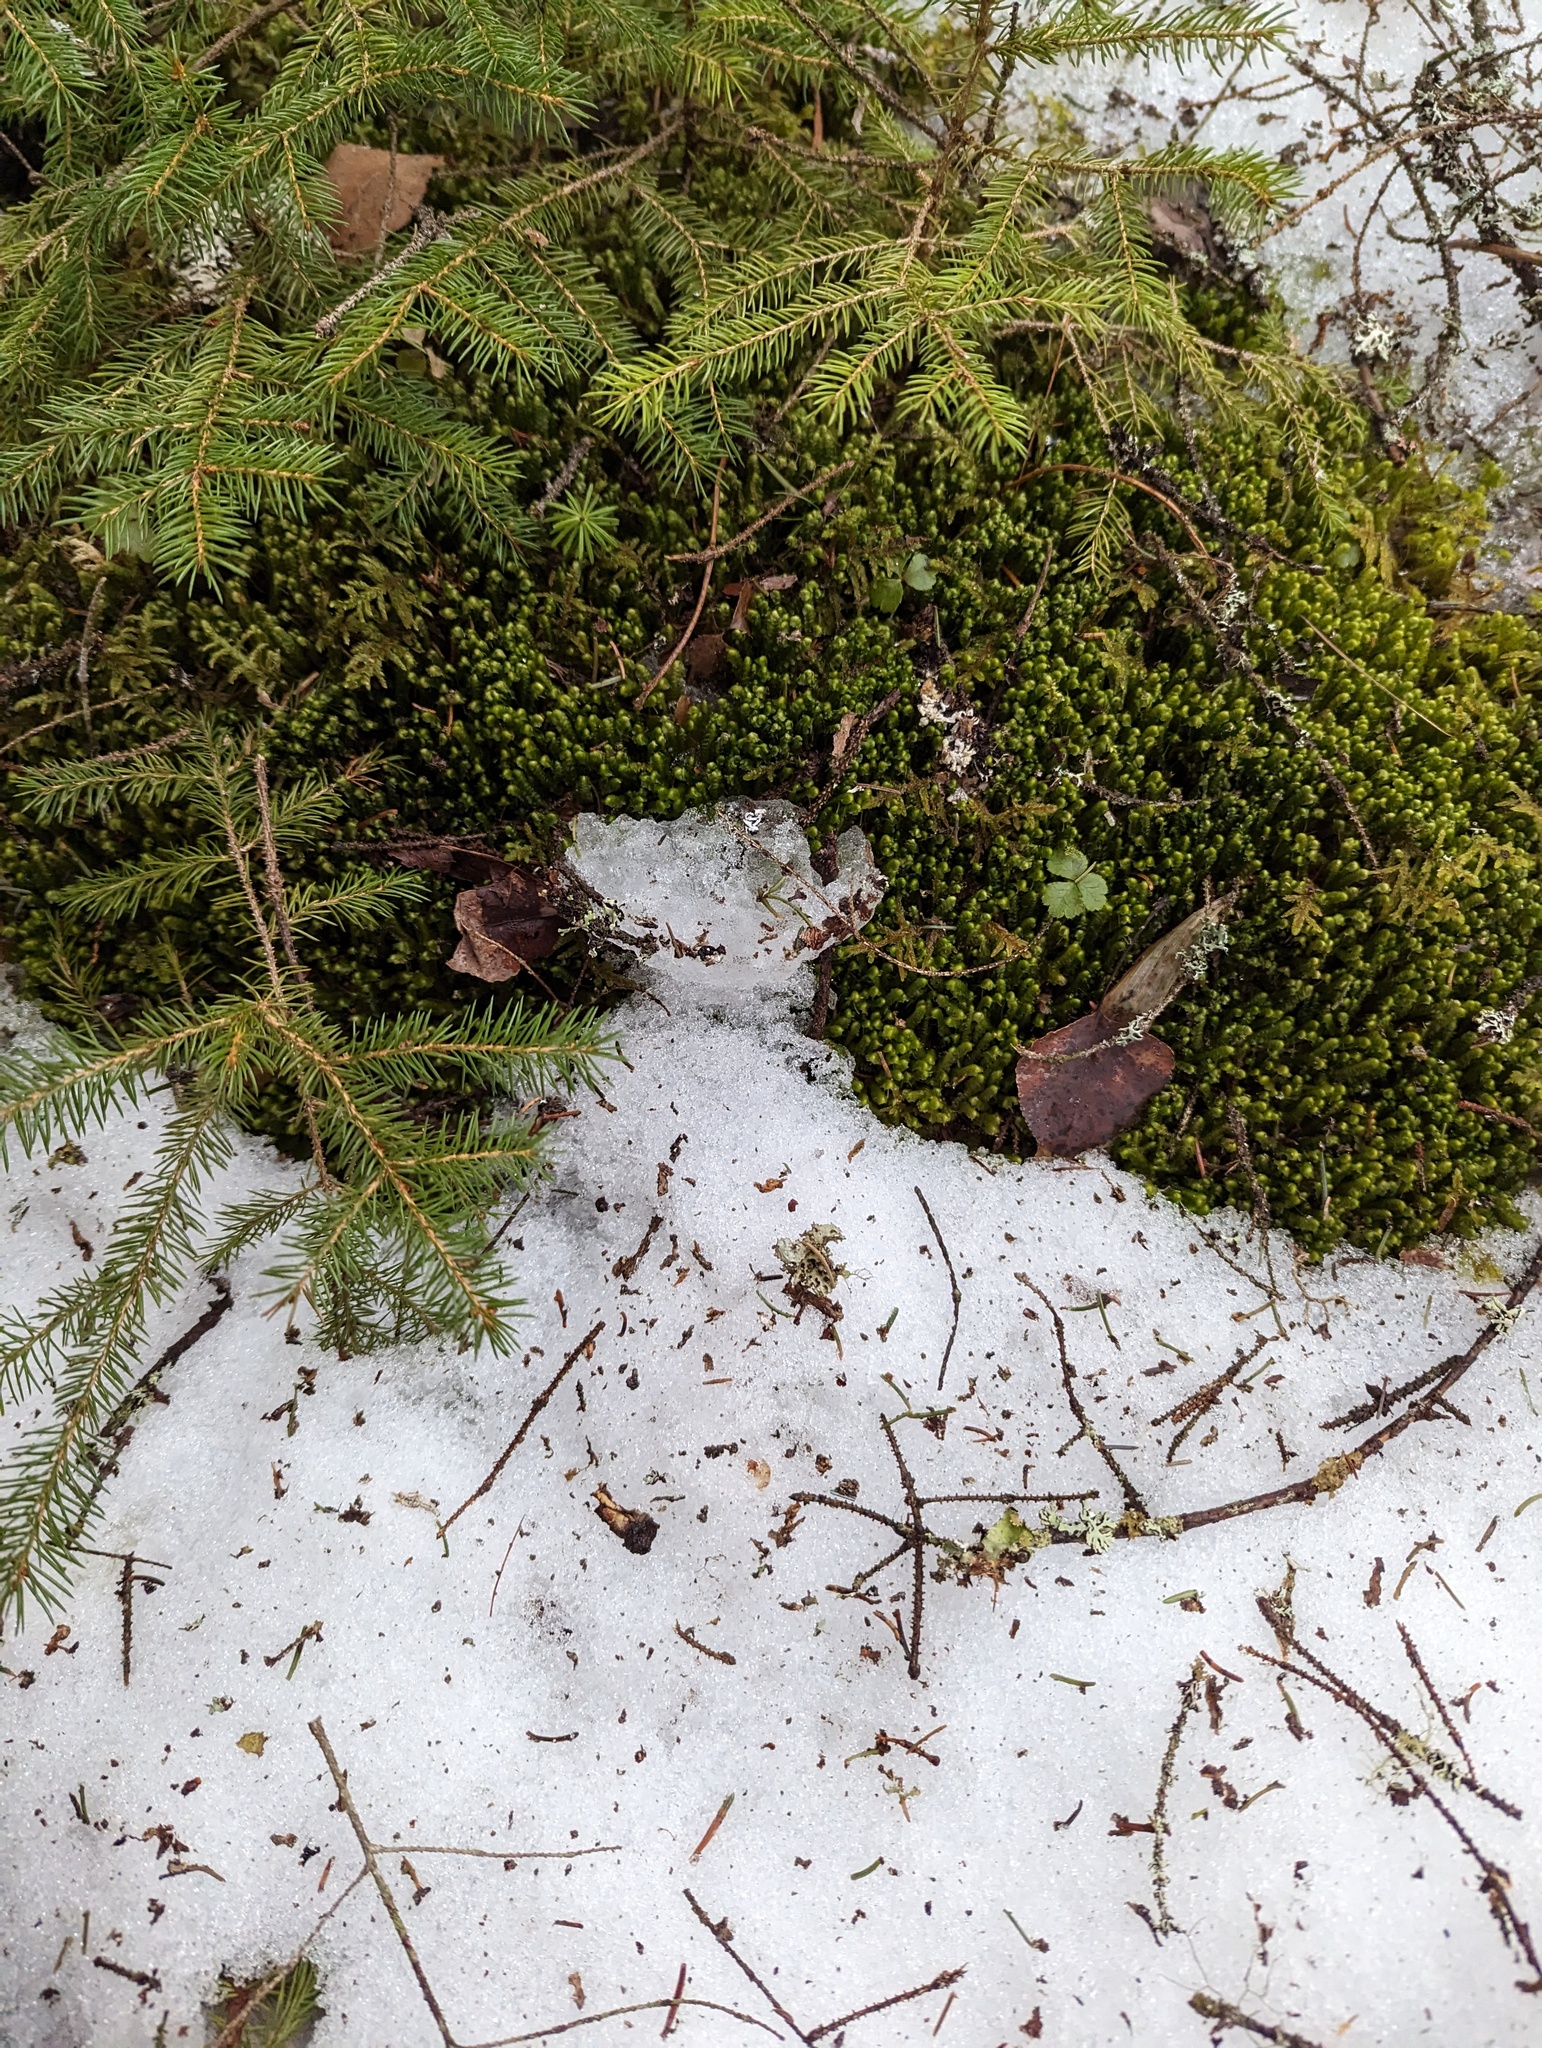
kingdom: Plantae
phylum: Tracheophyta
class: Pinopsida
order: Pinales
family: Pinaceae
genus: Picea
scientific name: Picea rubens
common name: Red spruce
